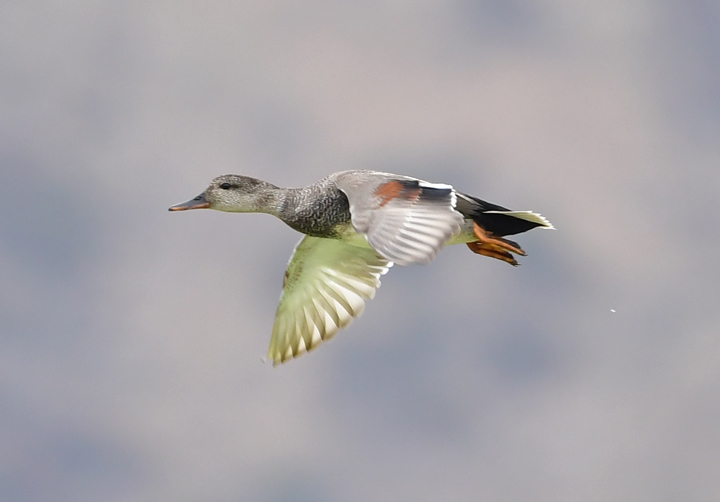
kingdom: Animalia
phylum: Chordata
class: Aves
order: Anseriformes
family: Anatidae
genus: Mareca
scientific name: Mareca strepera
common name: Gadwall
